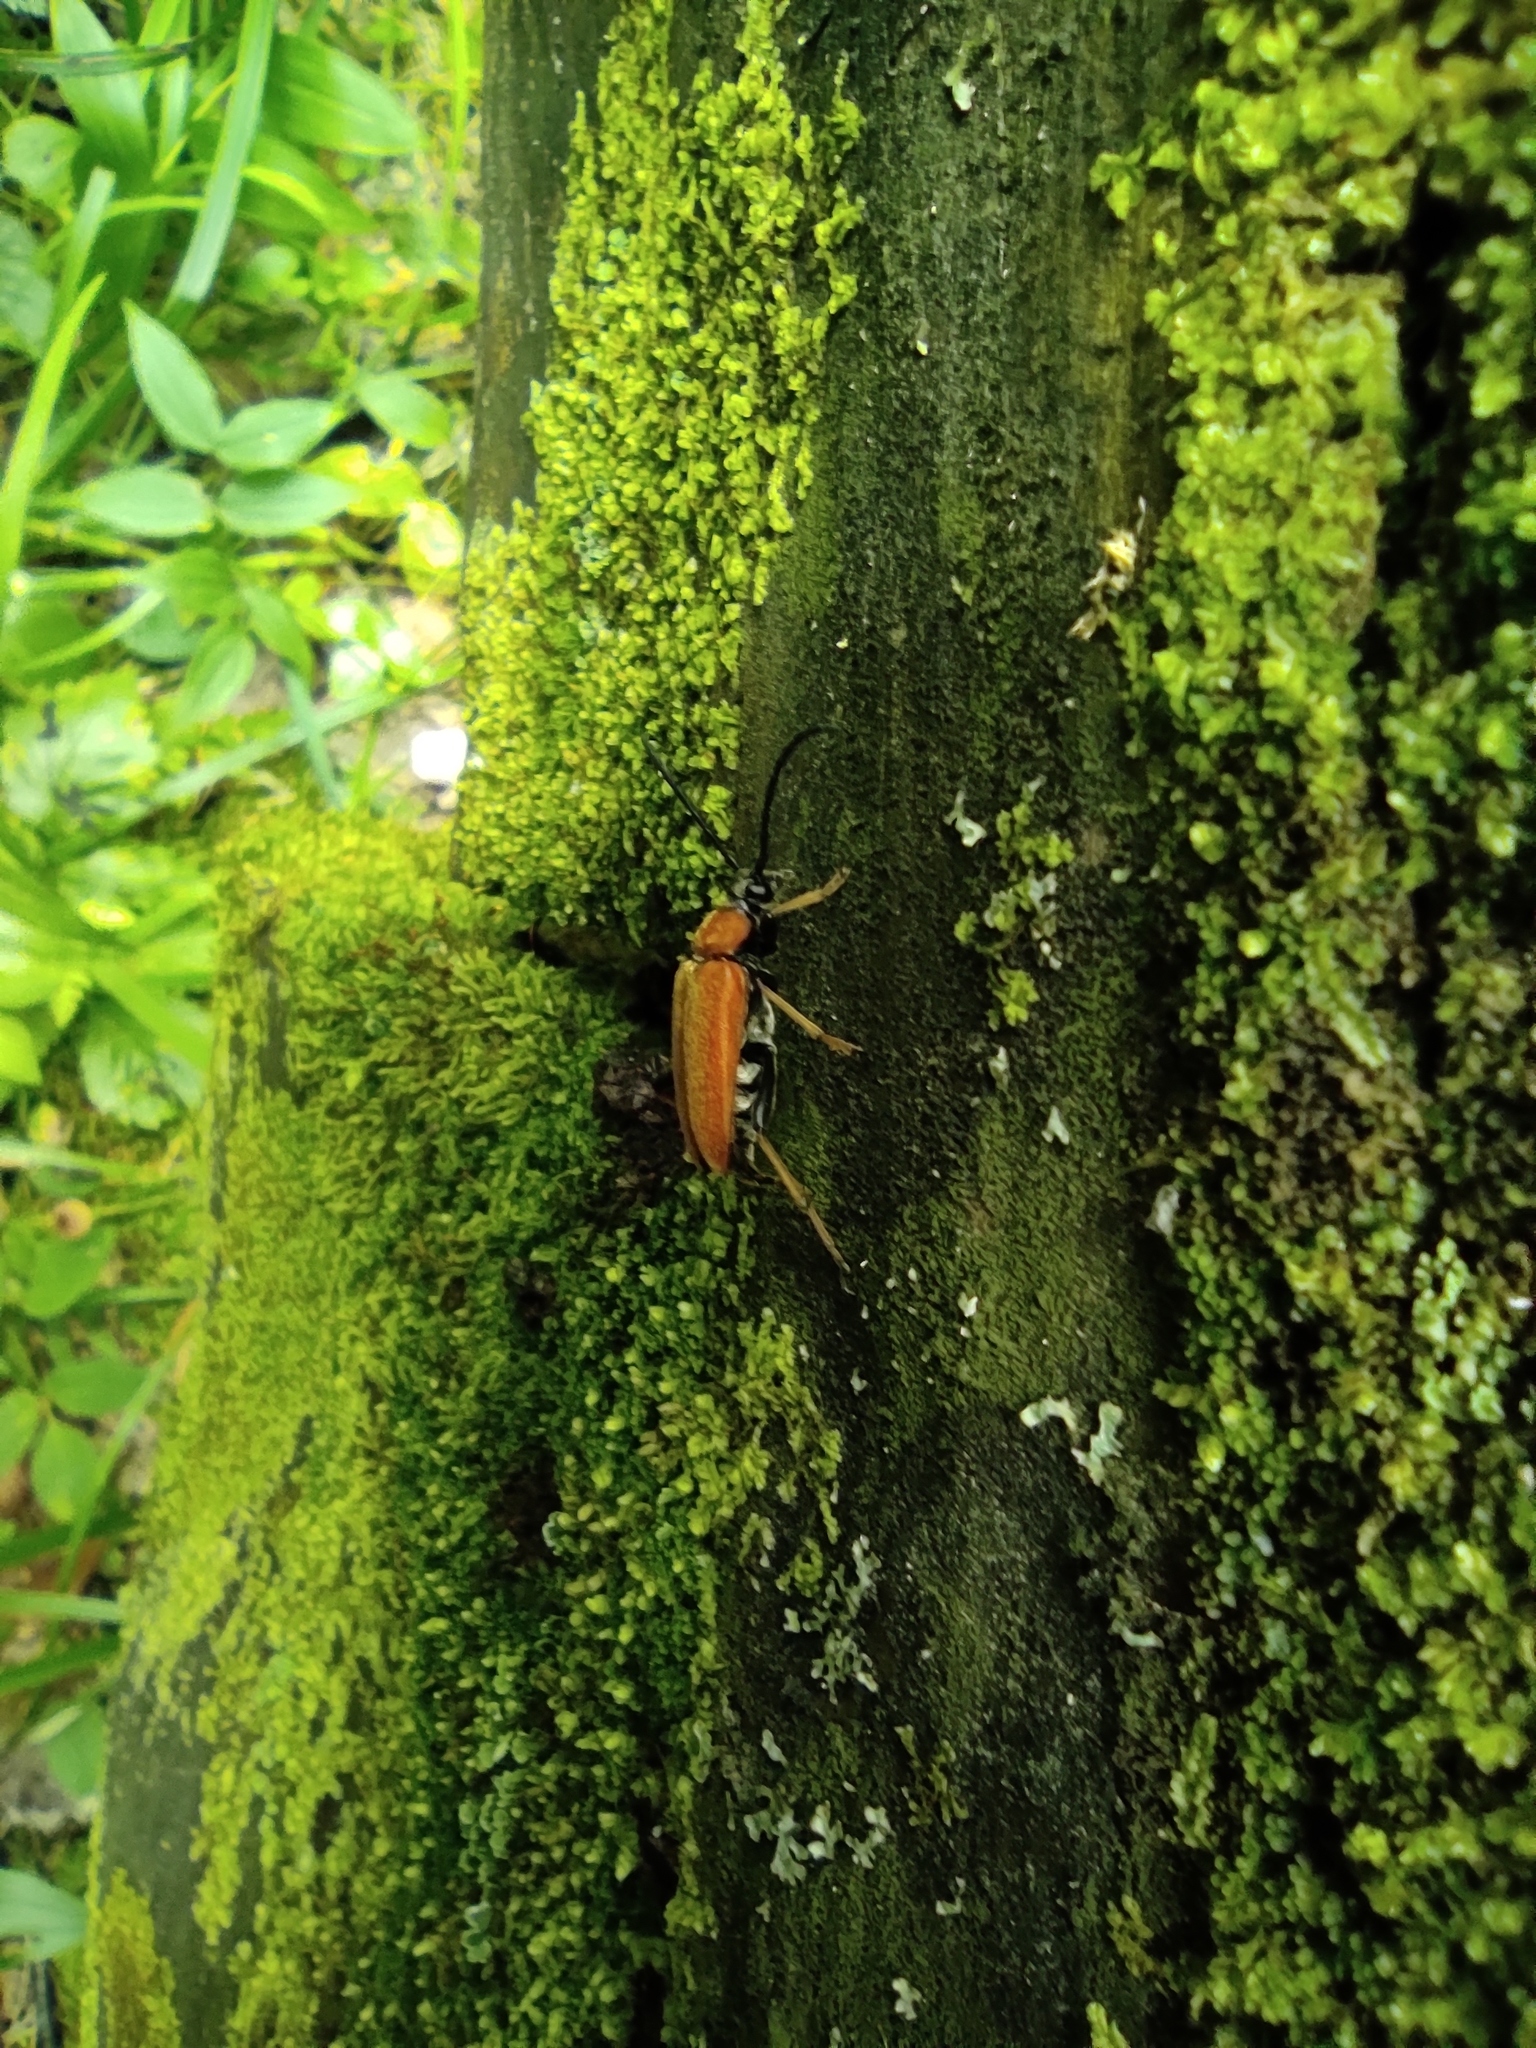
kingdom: Animalia
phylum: Arthropoda
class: Insecta
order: Coleoptera
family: Cerambycidae
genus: Stictoleptura
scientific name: Stictoleptura rubra
